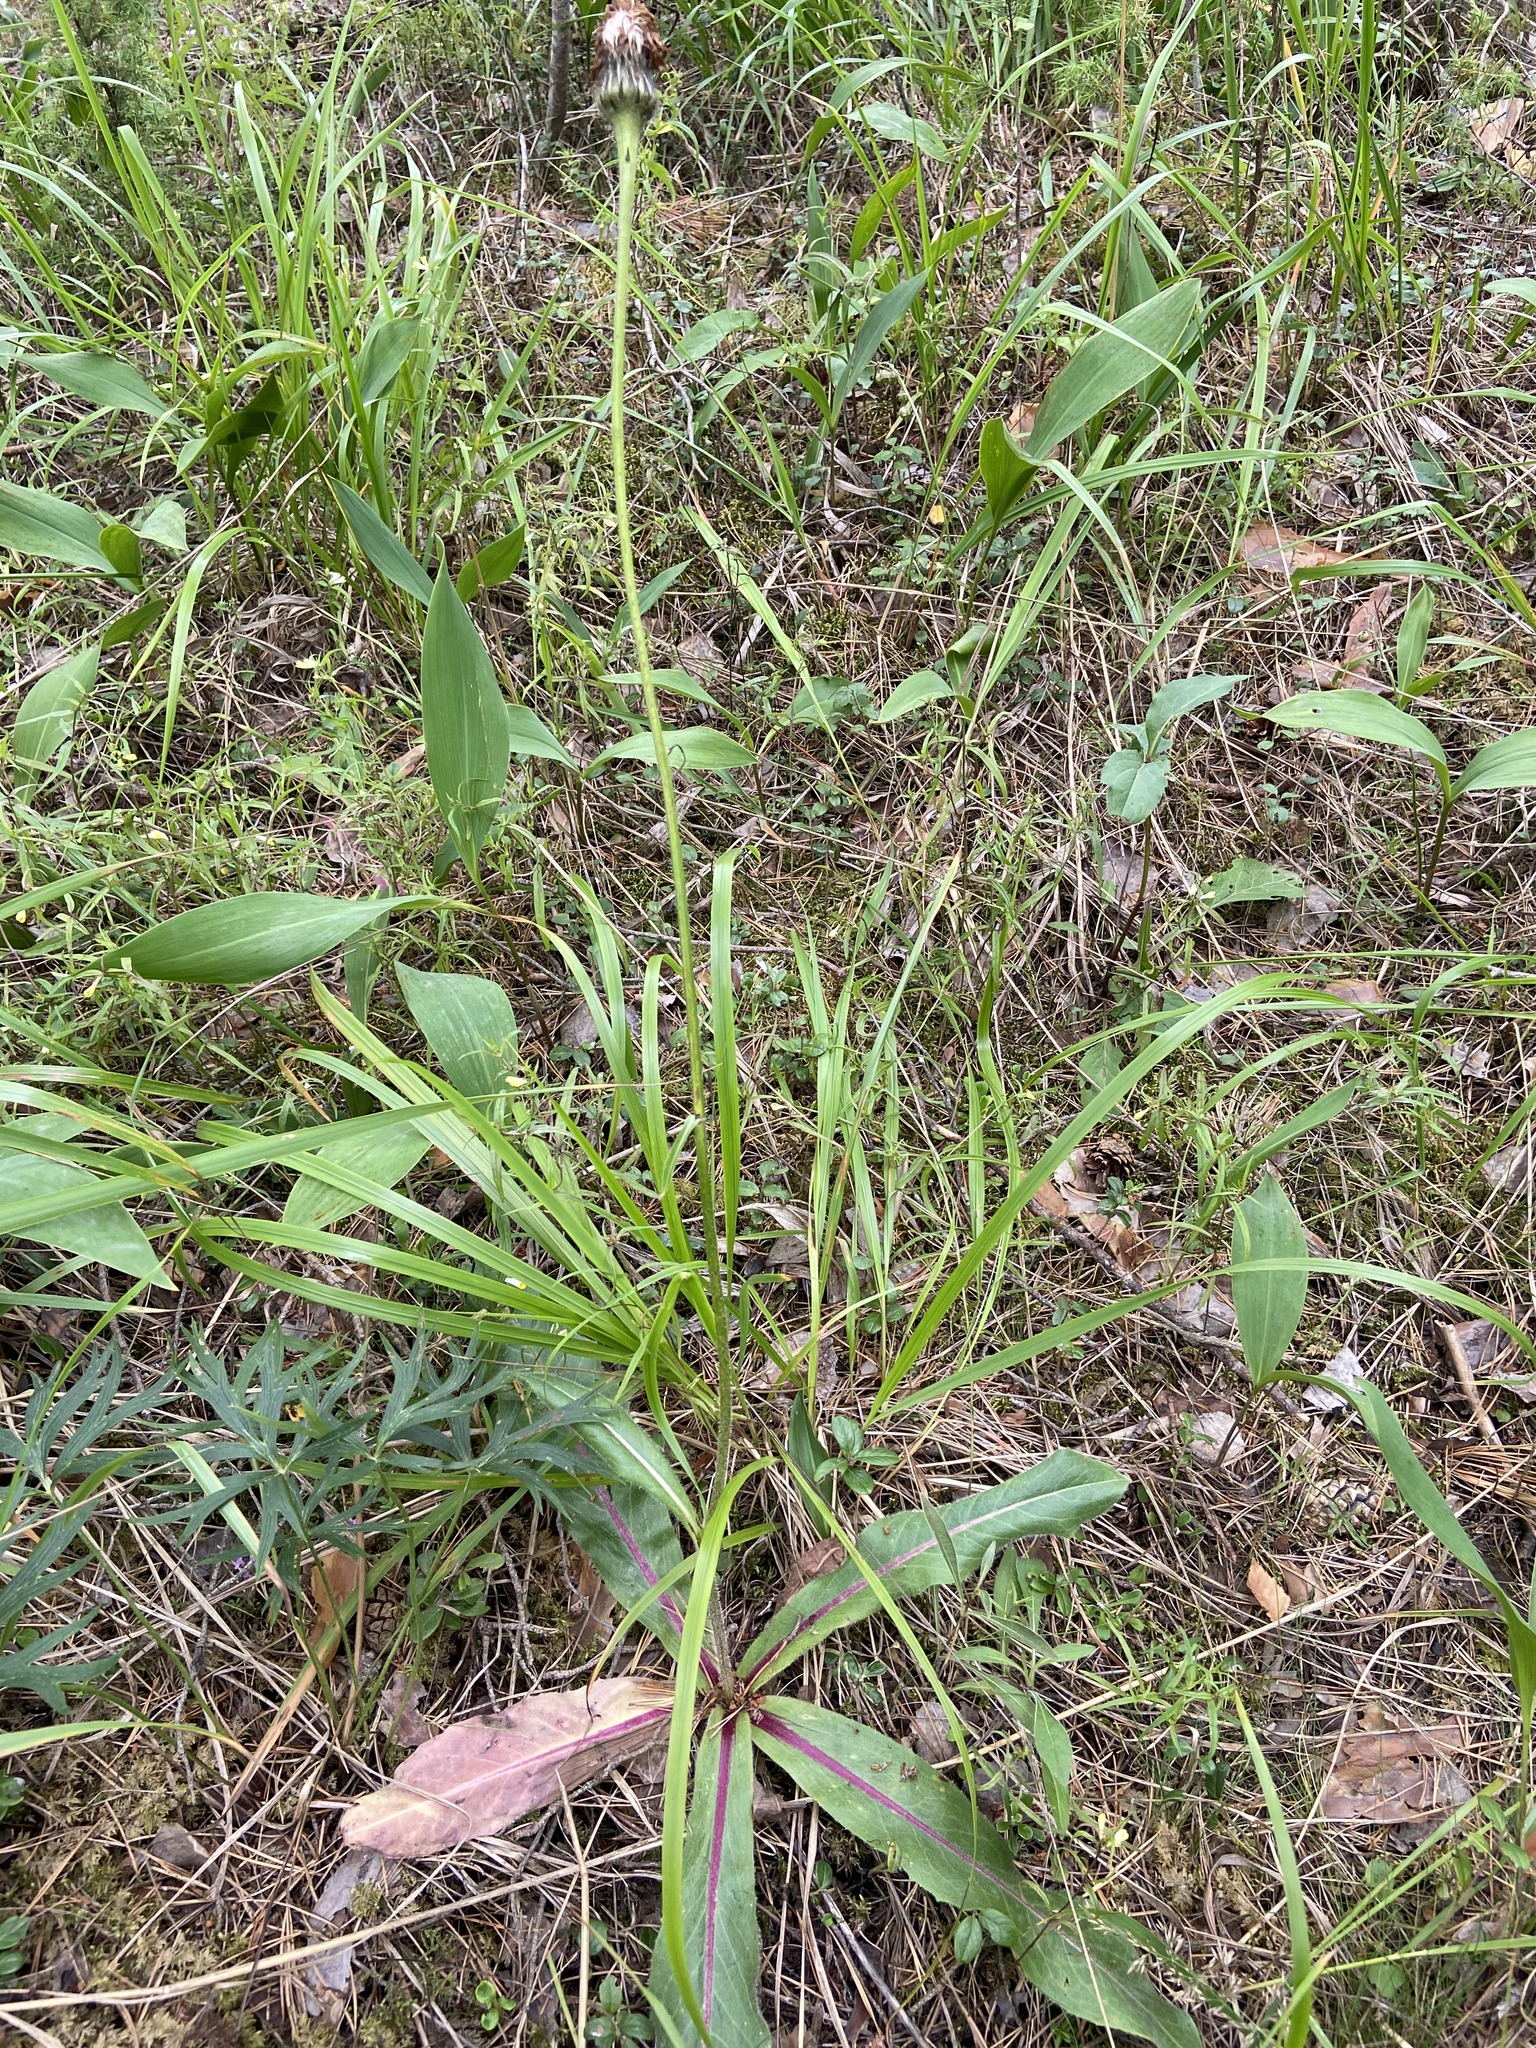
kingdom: Plantae
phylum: Tracheophyta
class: Magnoliopsida
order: Asterales
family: Asteraceae
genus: Trommsdorffia
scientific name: Trommsdorffia maculata
